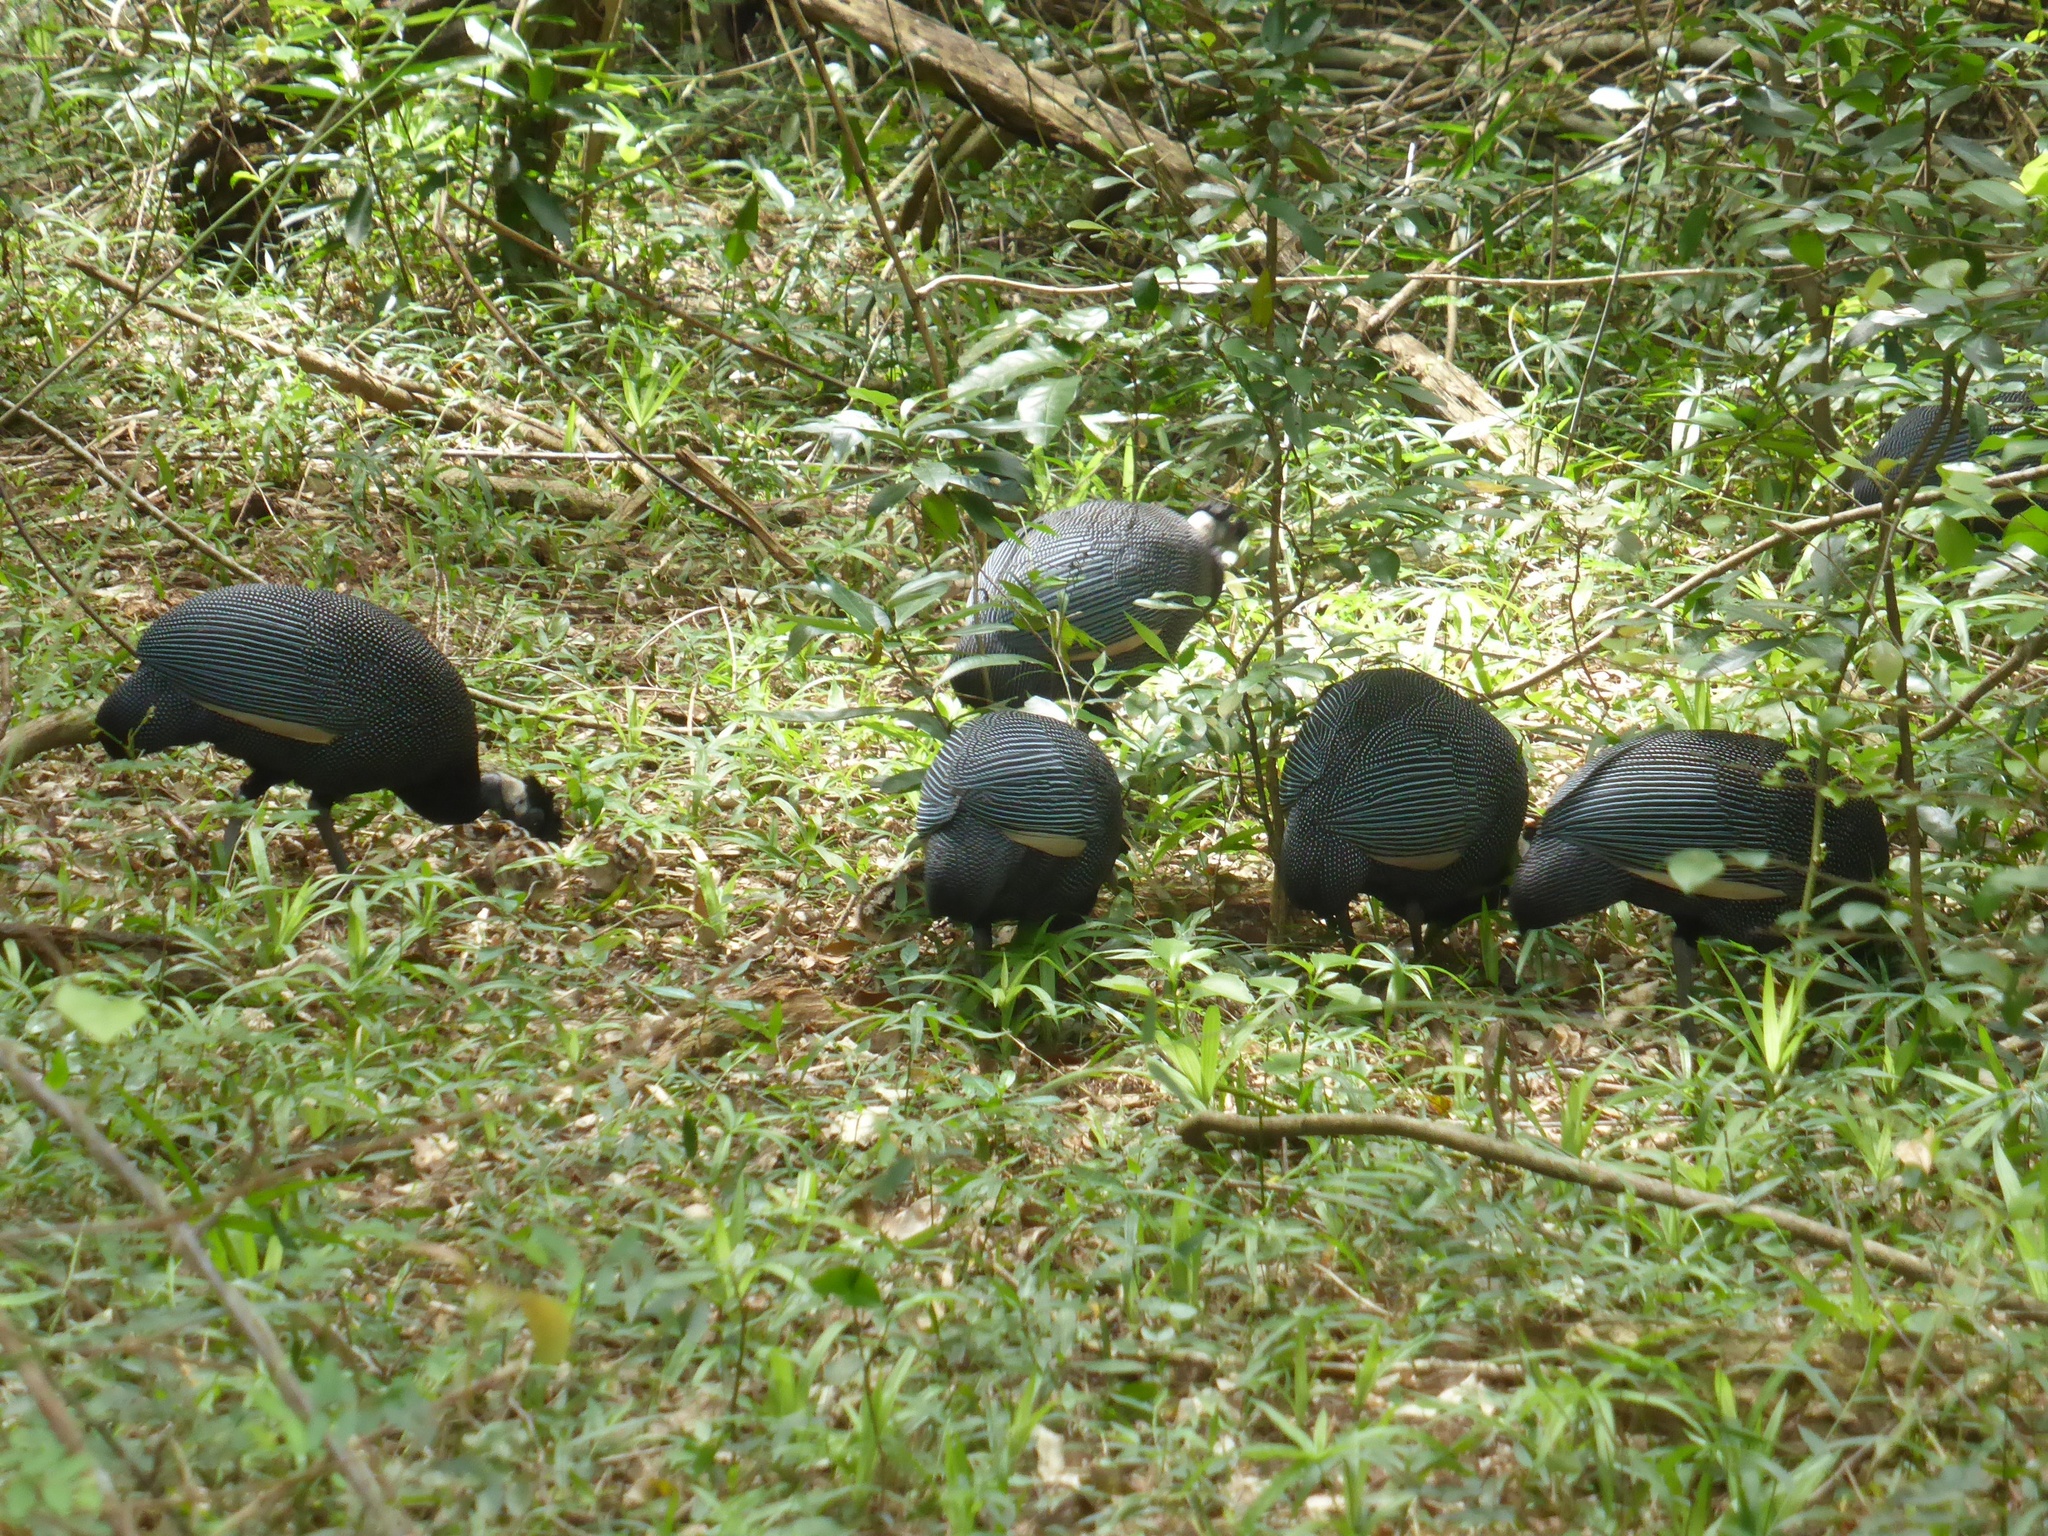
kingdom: Animalia
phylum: Chordata
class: Aves
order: Galliformes
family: Numididae
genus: Guttera
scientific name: Guttera pucherani
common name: Crested guineafowl
